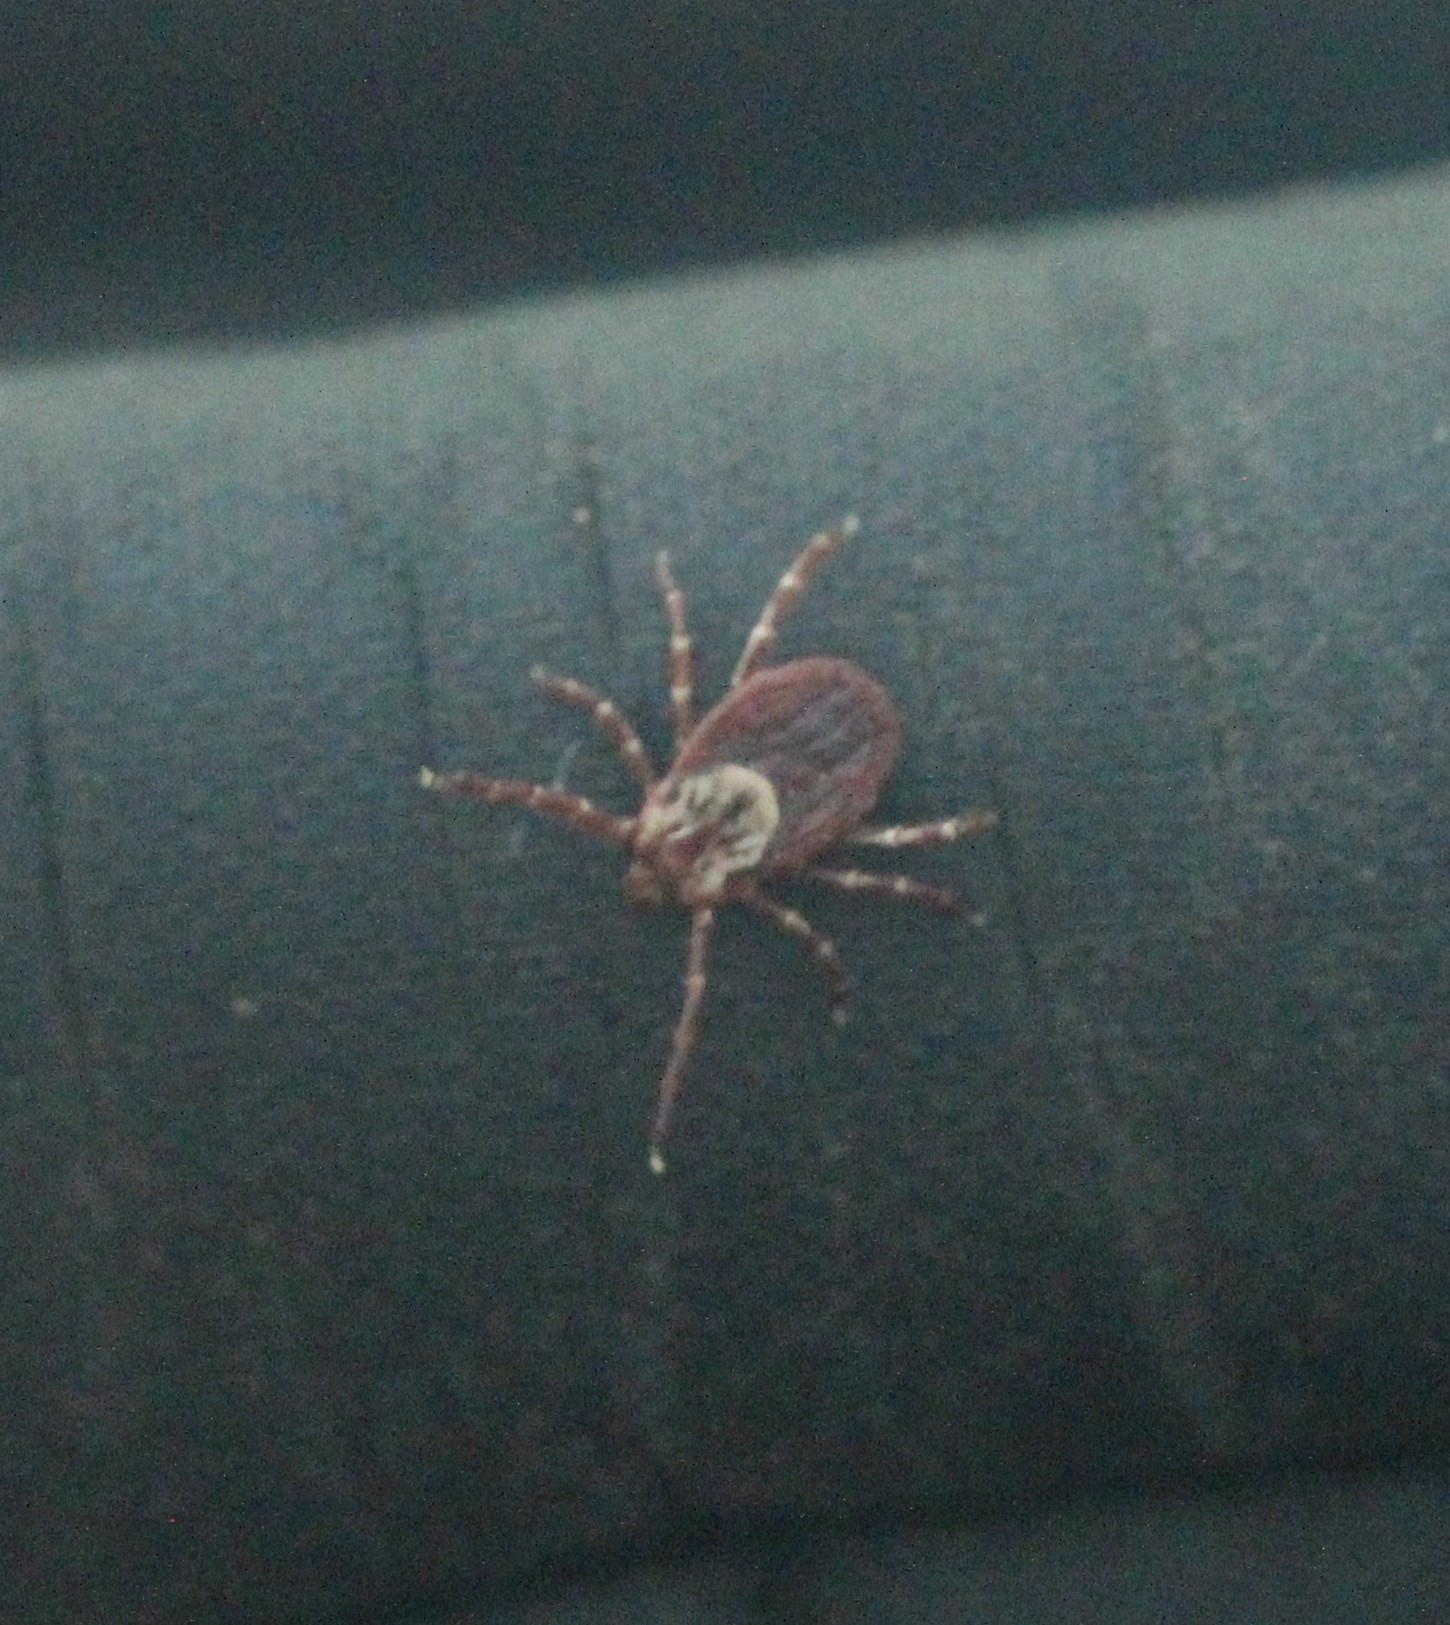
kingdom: Animalia
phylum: Arthropoda
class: Arachnida
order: Ixodida
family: Ixodidae
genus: Dermacentor
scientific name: Dermacentor variabilis
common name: American dog tick
